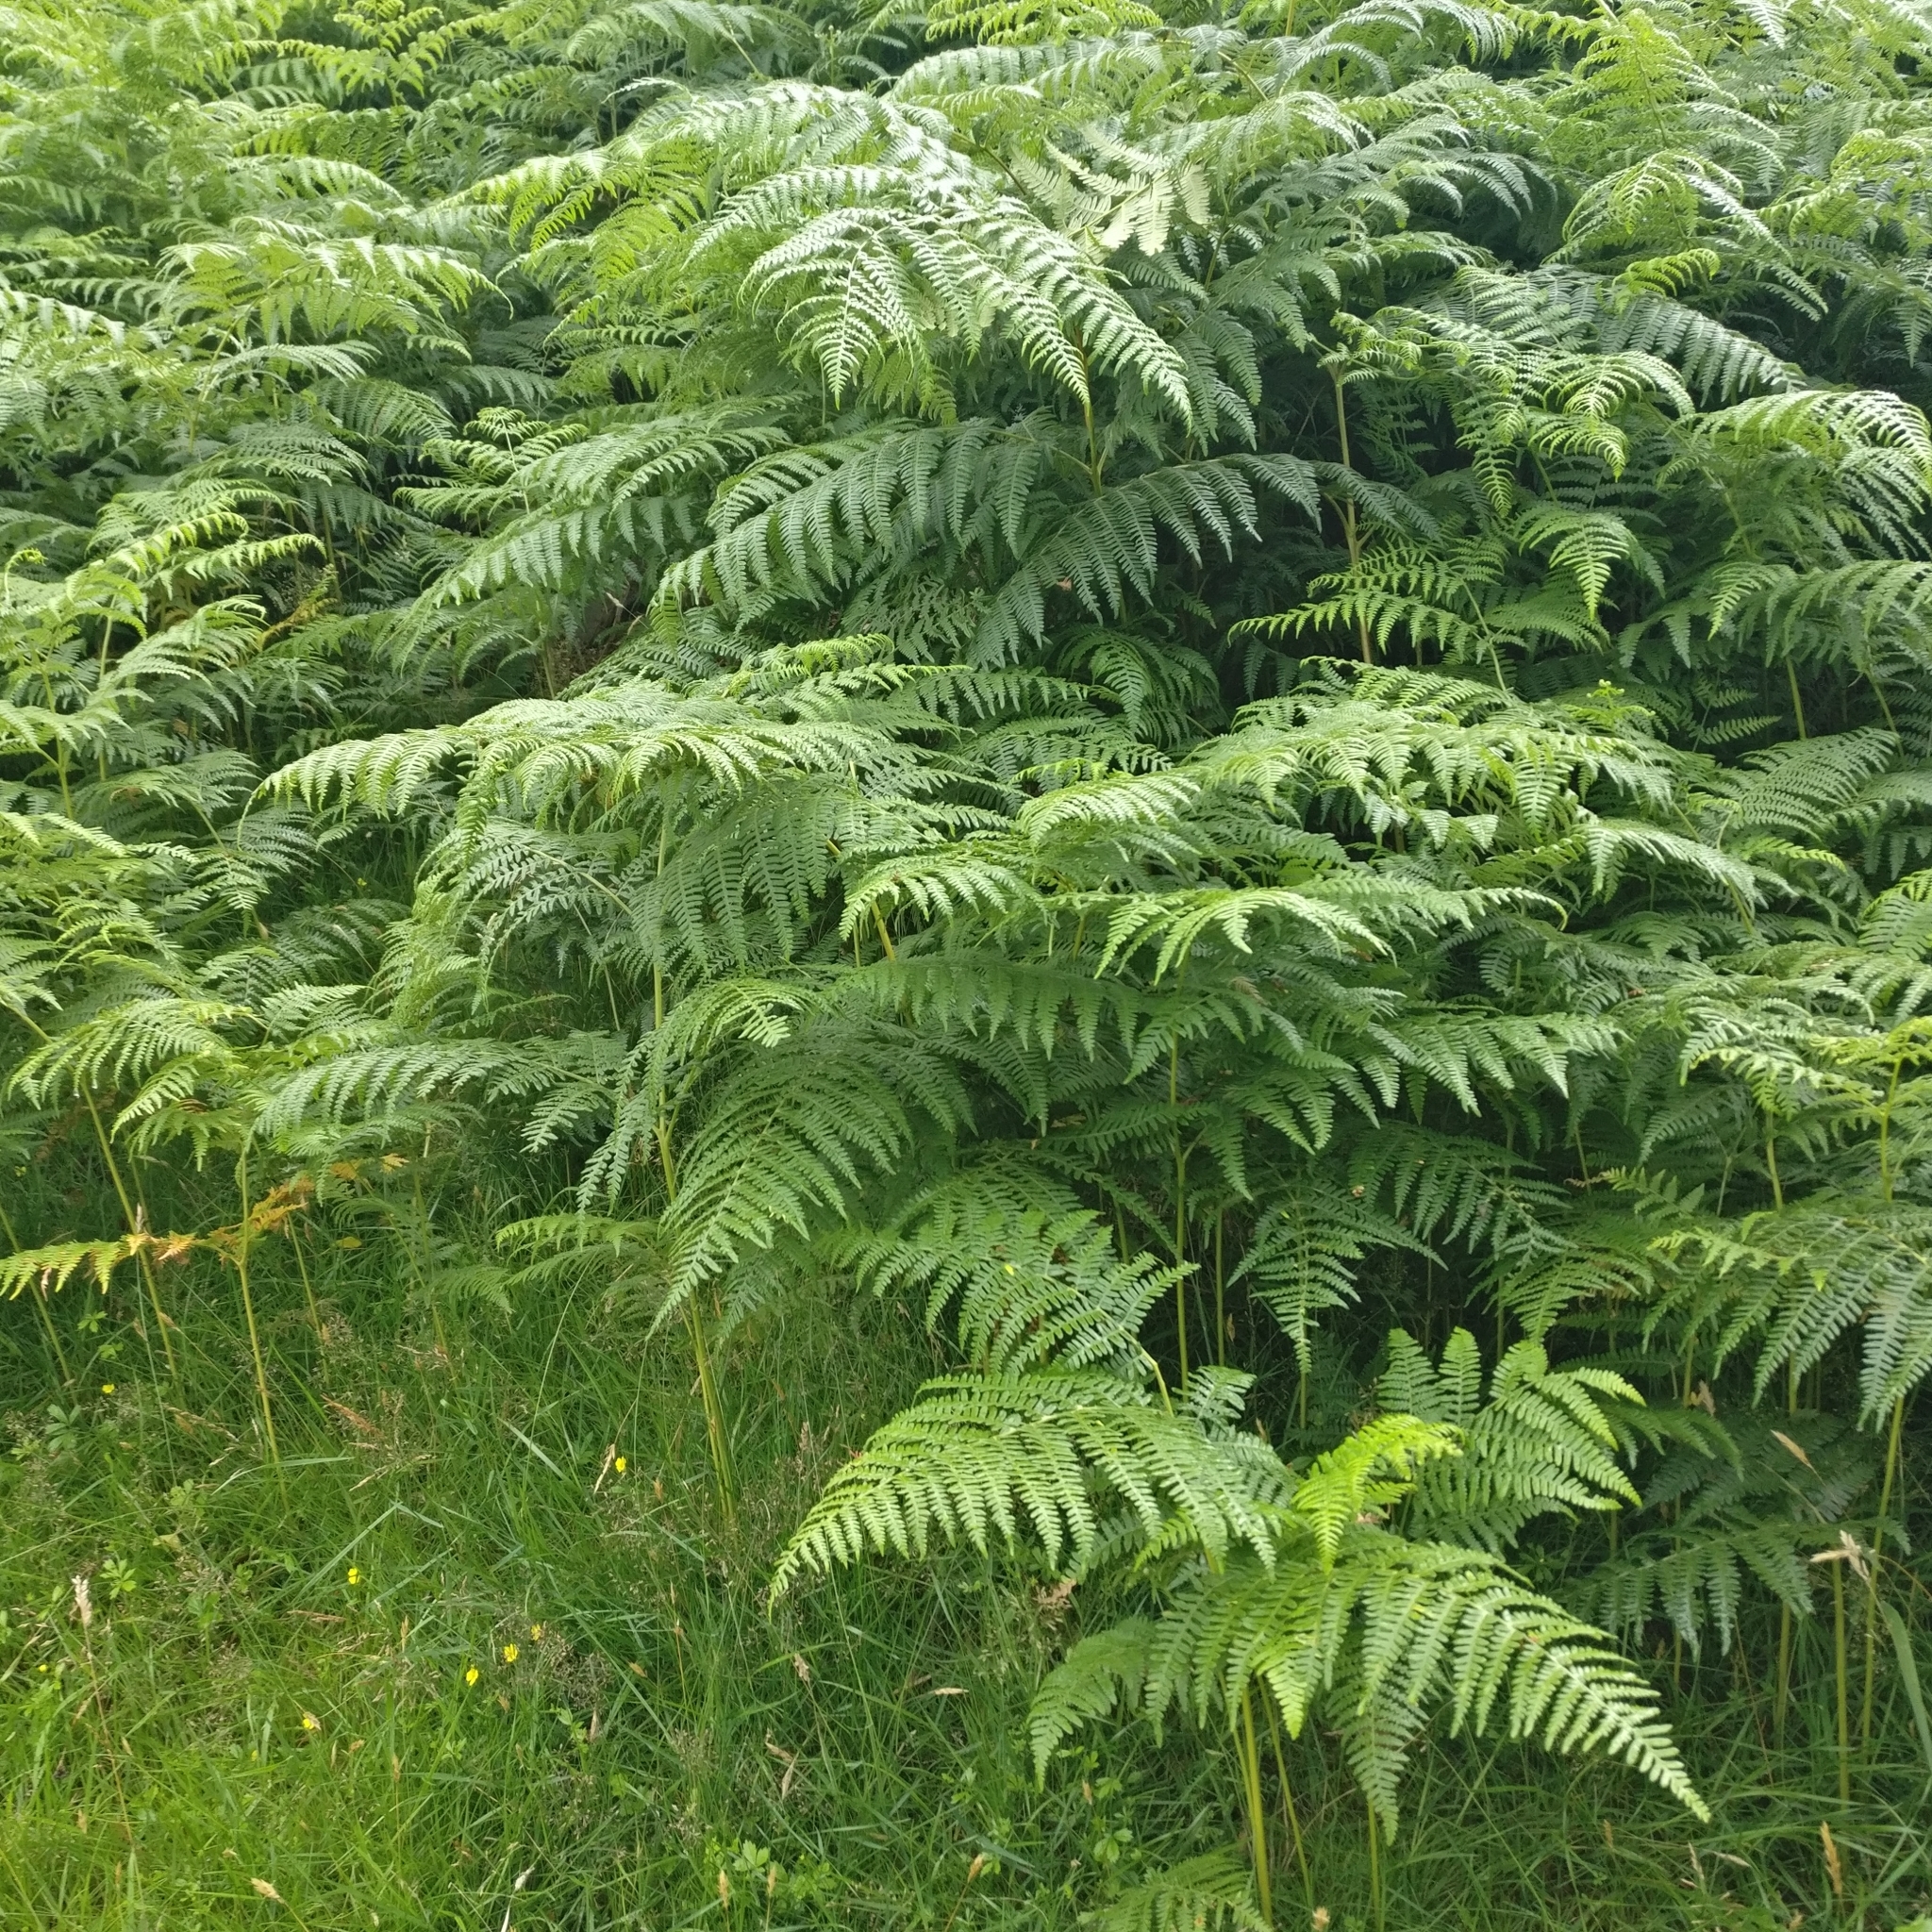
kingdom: Plantae
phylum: Tracheophyta
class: Polypodiopsida
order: Polypodiales
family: Dennstaedtiaceae
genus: Pteridium
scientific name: Pteridium aquilinum
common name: Bracken
